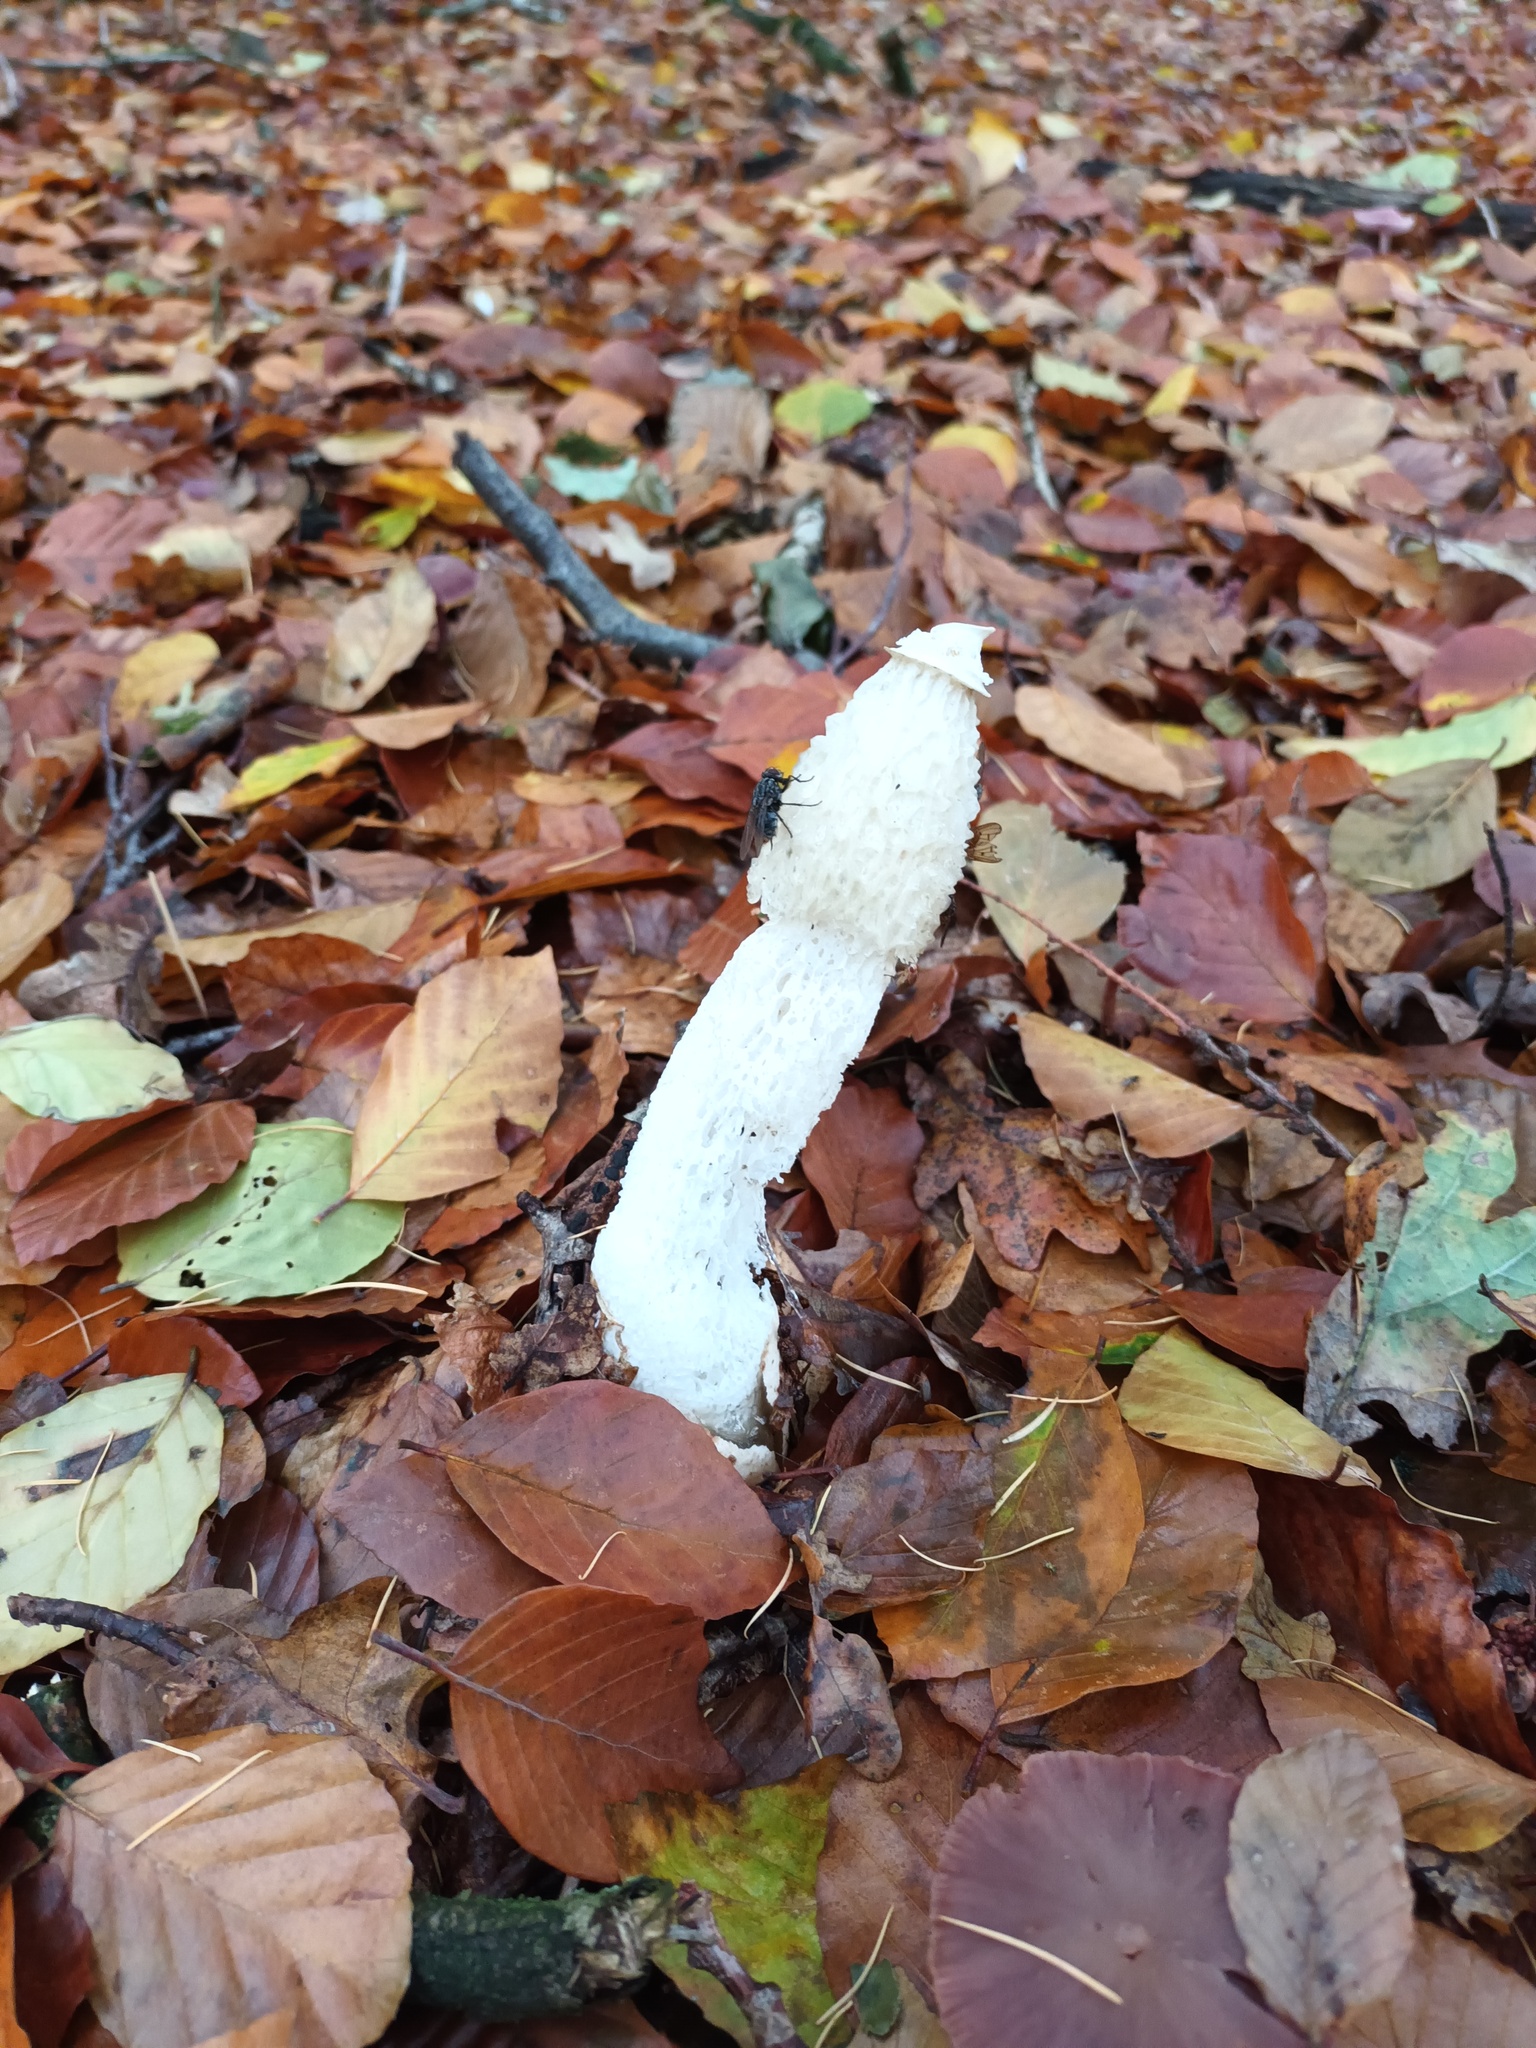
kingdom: Fungi
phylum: Basidiomycota
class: Agaricomycetes
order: Phallales
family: Phallaceae
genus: Phallus
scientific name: Phallus impudicus
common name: Common stinkhorn
